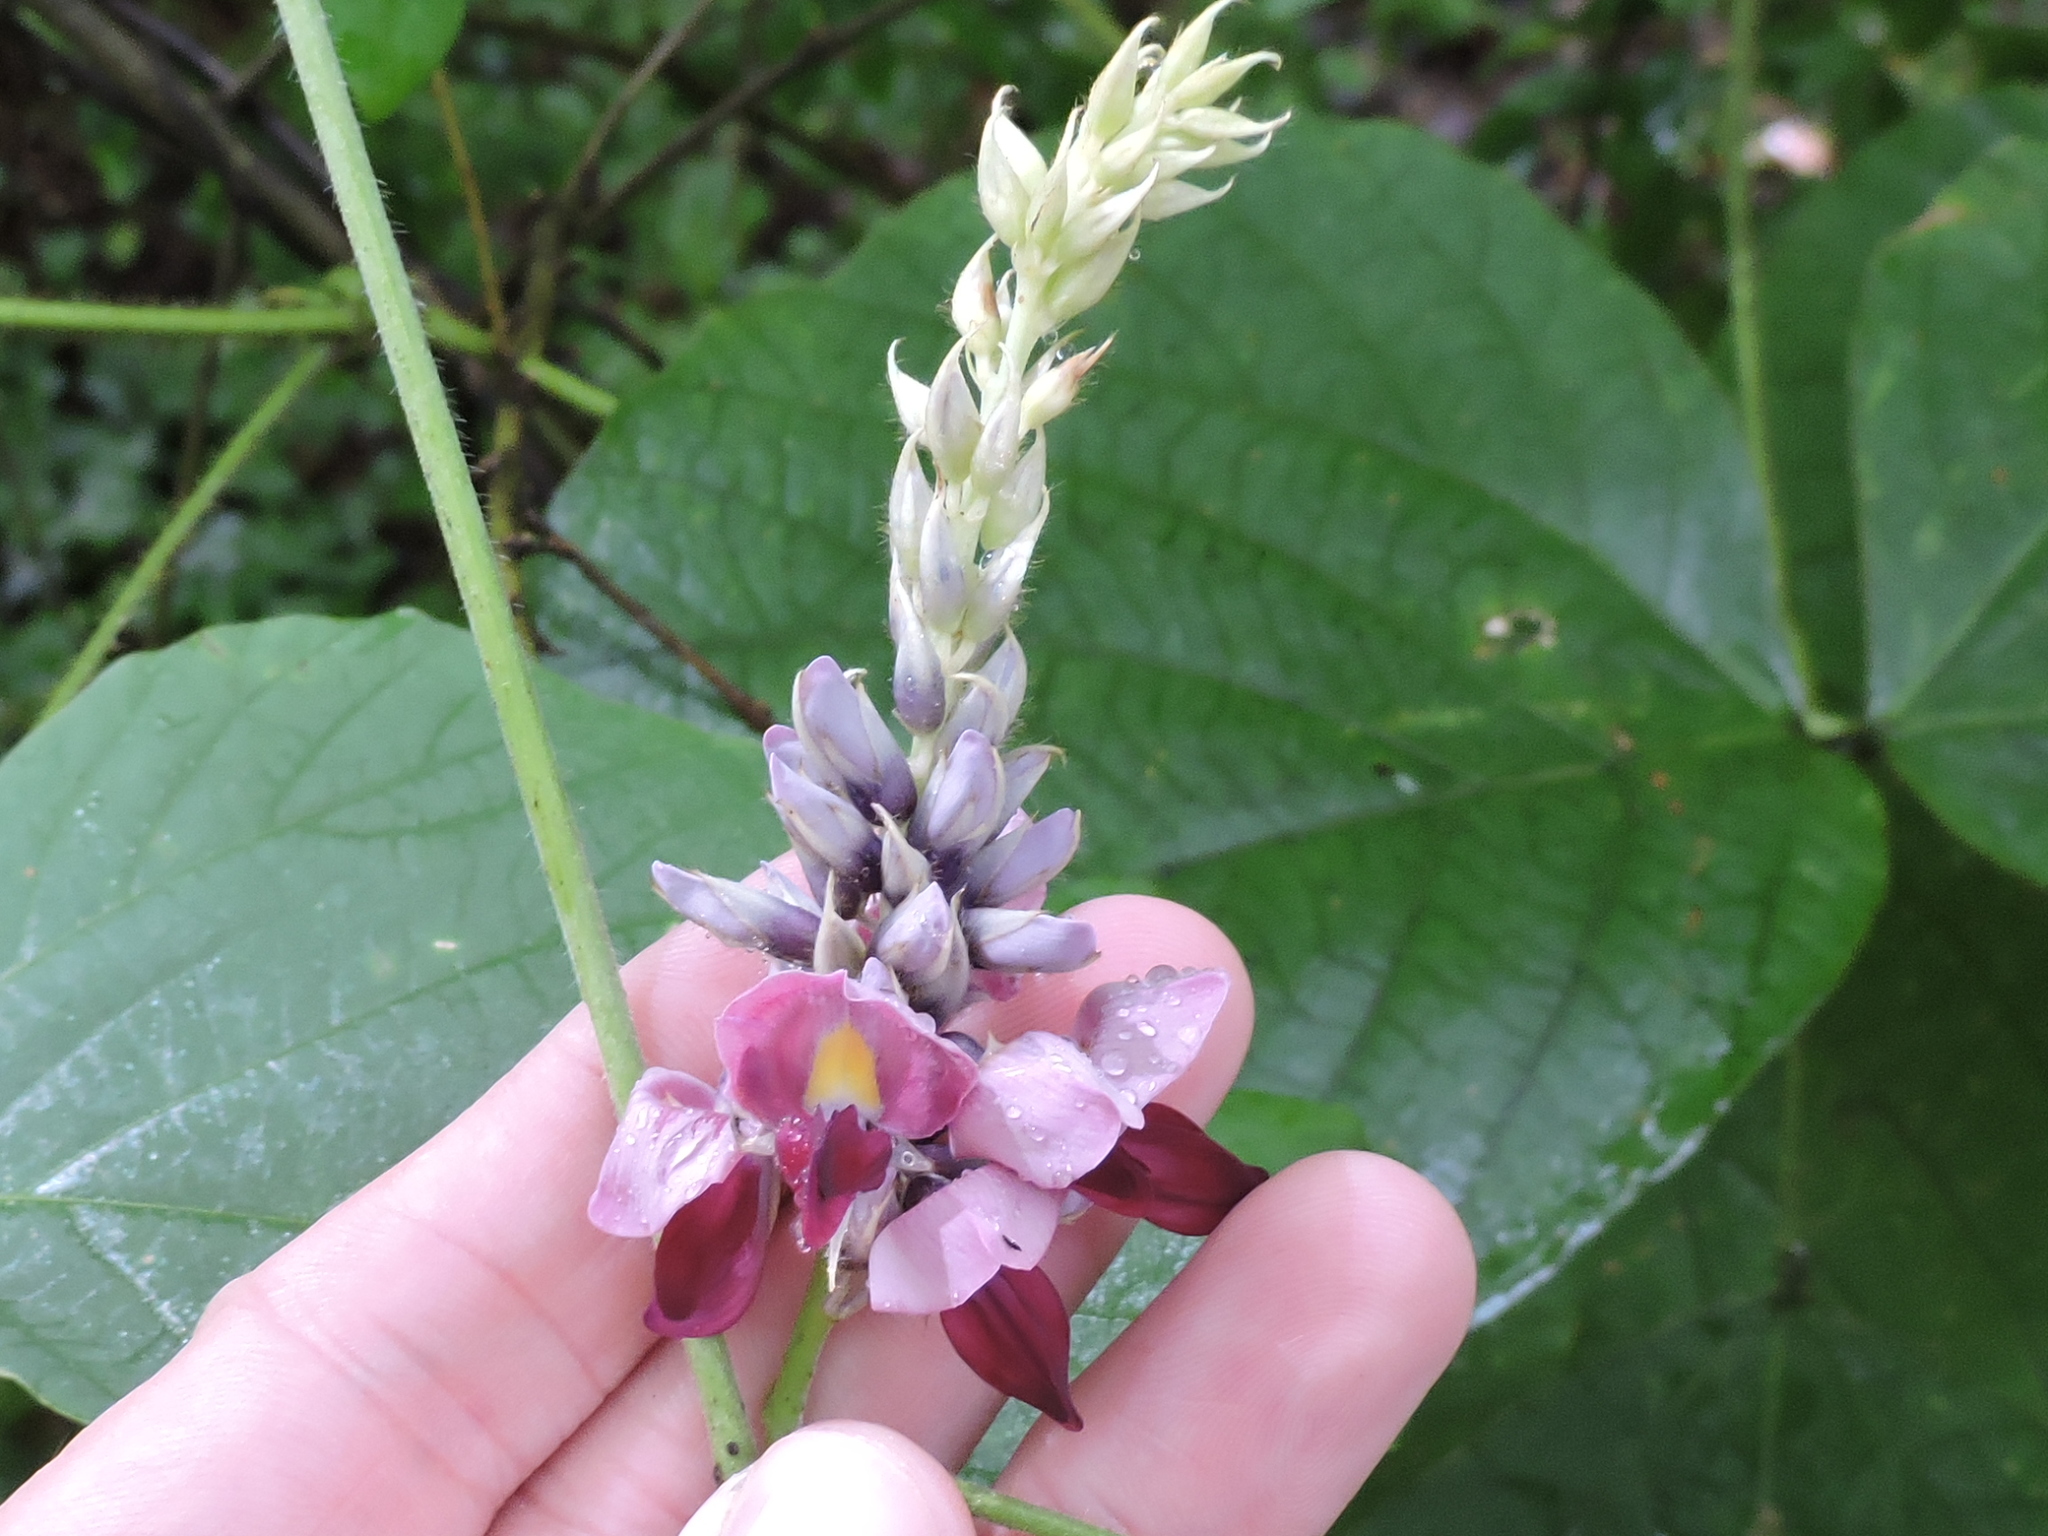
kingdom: Plantae
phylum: Tracheophyta
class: Magnoliopsida
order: Fabales
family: Fabaceae
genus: Pueraria
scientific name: Pueraria montana
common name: Kudzu
